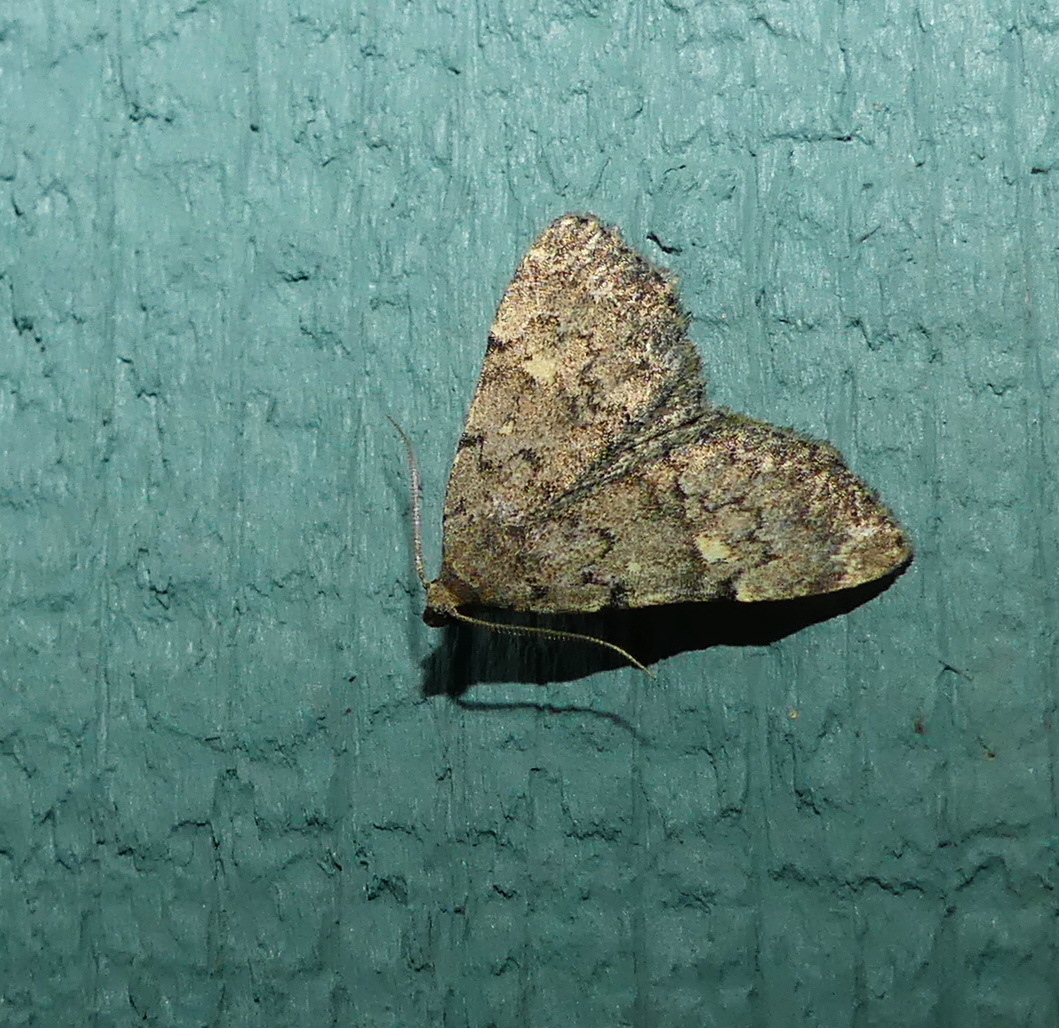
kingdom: Animalia
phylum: Arthropoda
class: Insecta
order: Lepidoptera
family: Erebidae
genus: Idia
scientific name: Idia aemula
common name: Common idia moth
